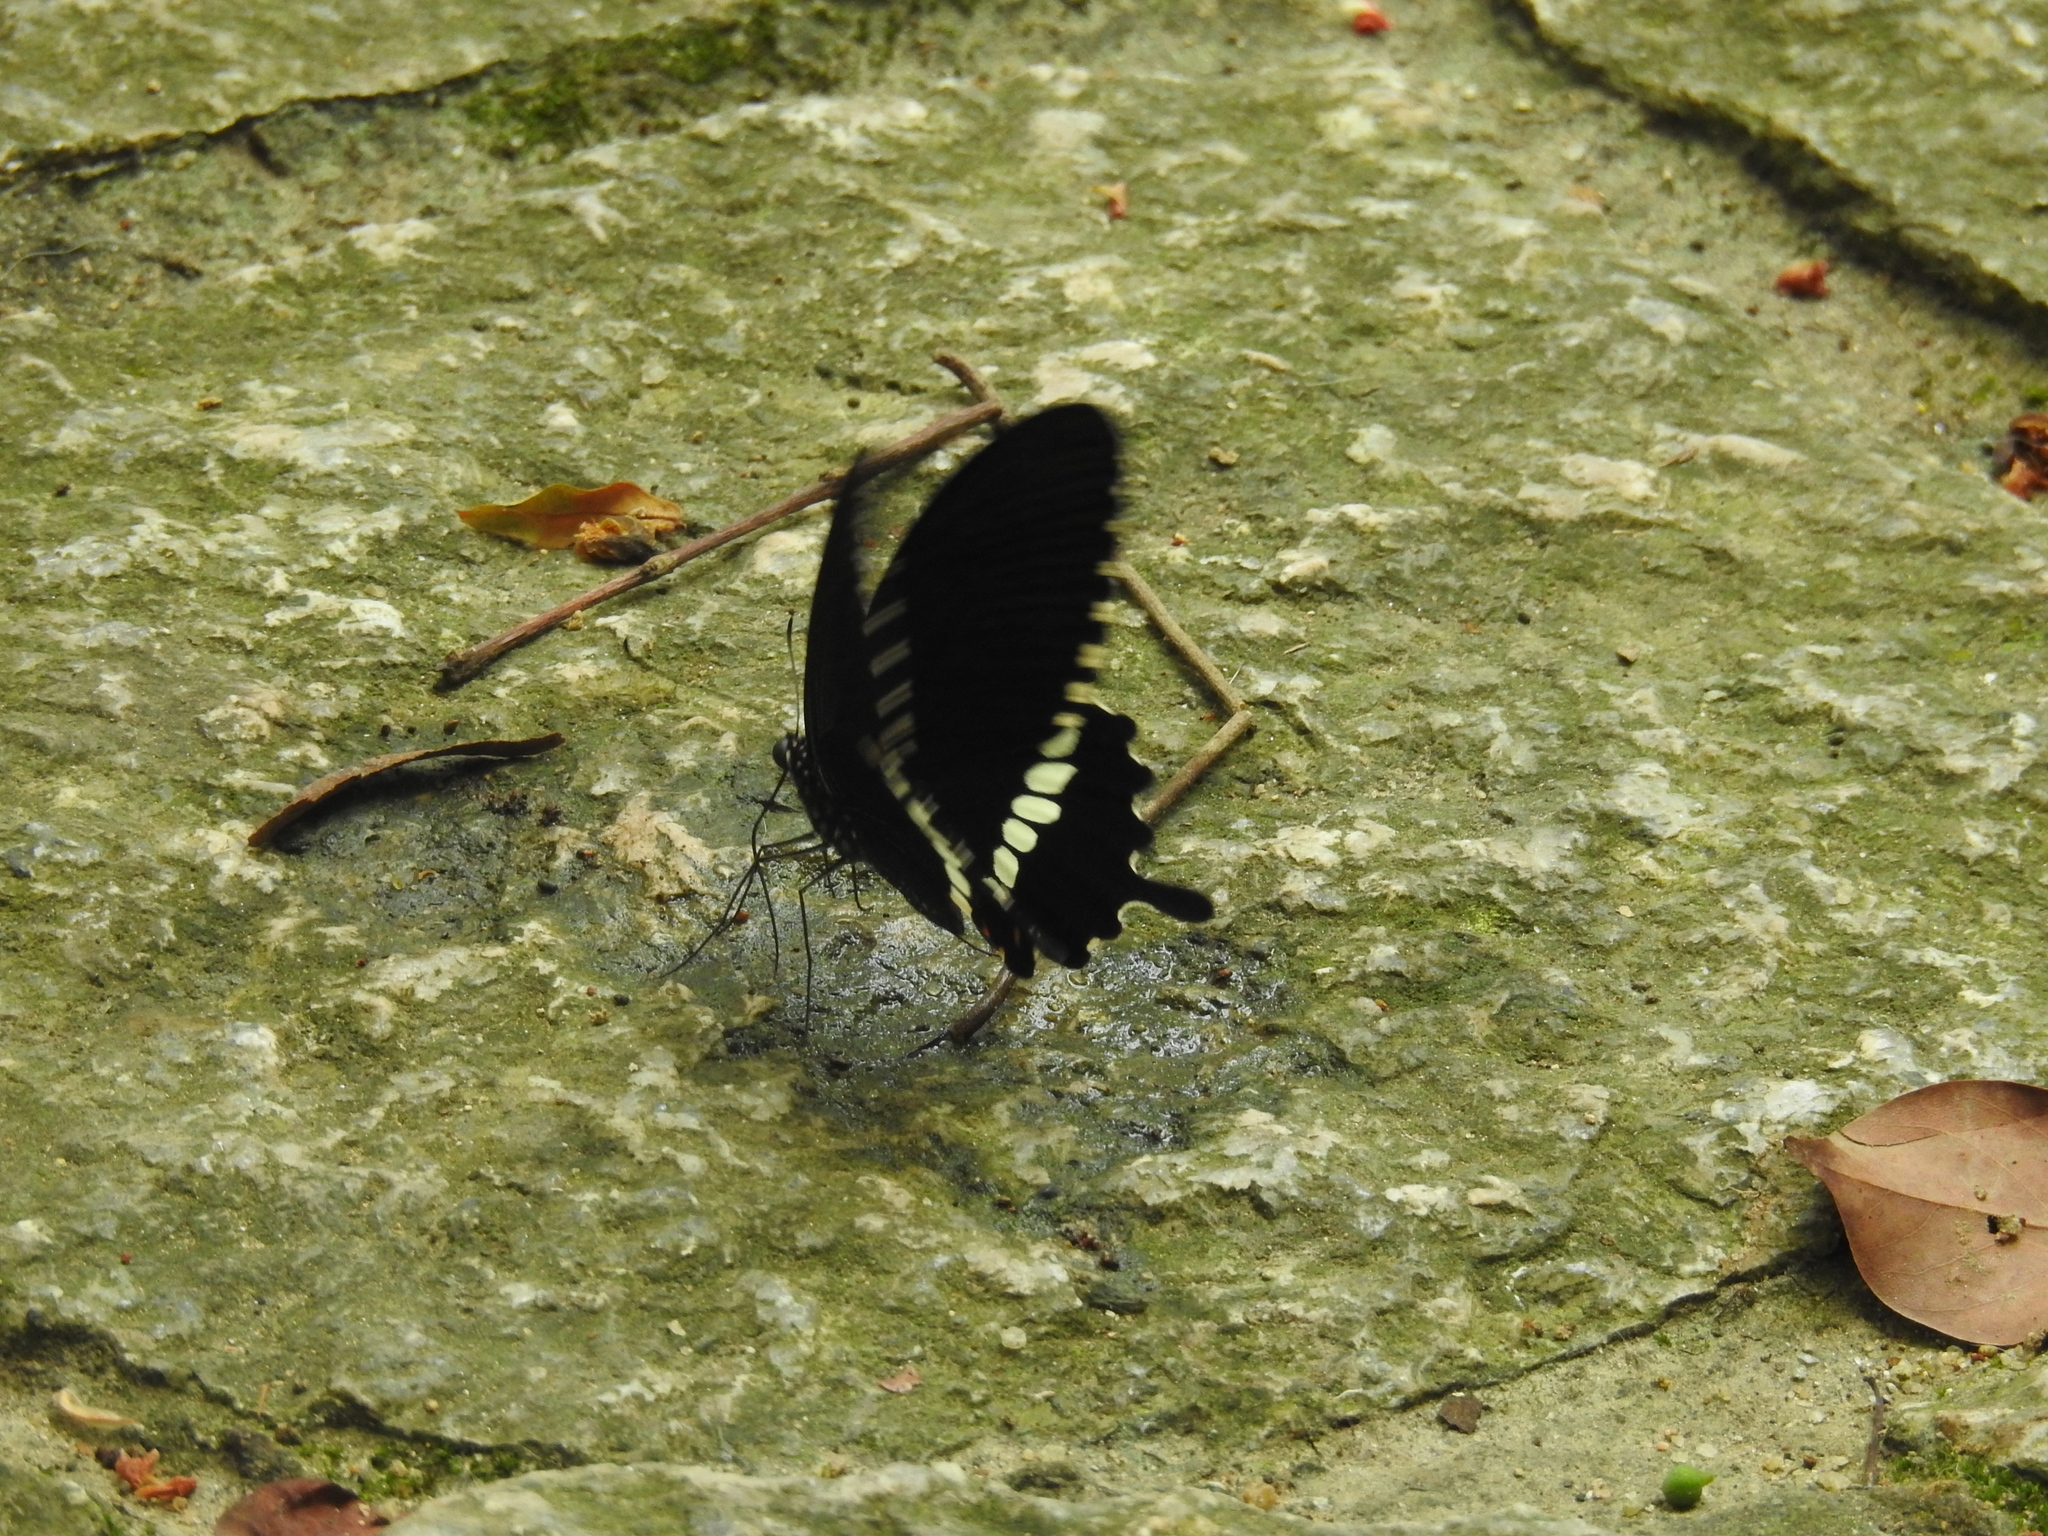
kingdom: Animalia
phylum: Arthropoda
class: Insecta
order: Lepidoptera
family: Papilionidae
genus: Papilio
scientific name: Papilio polytes
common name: Common mormon
